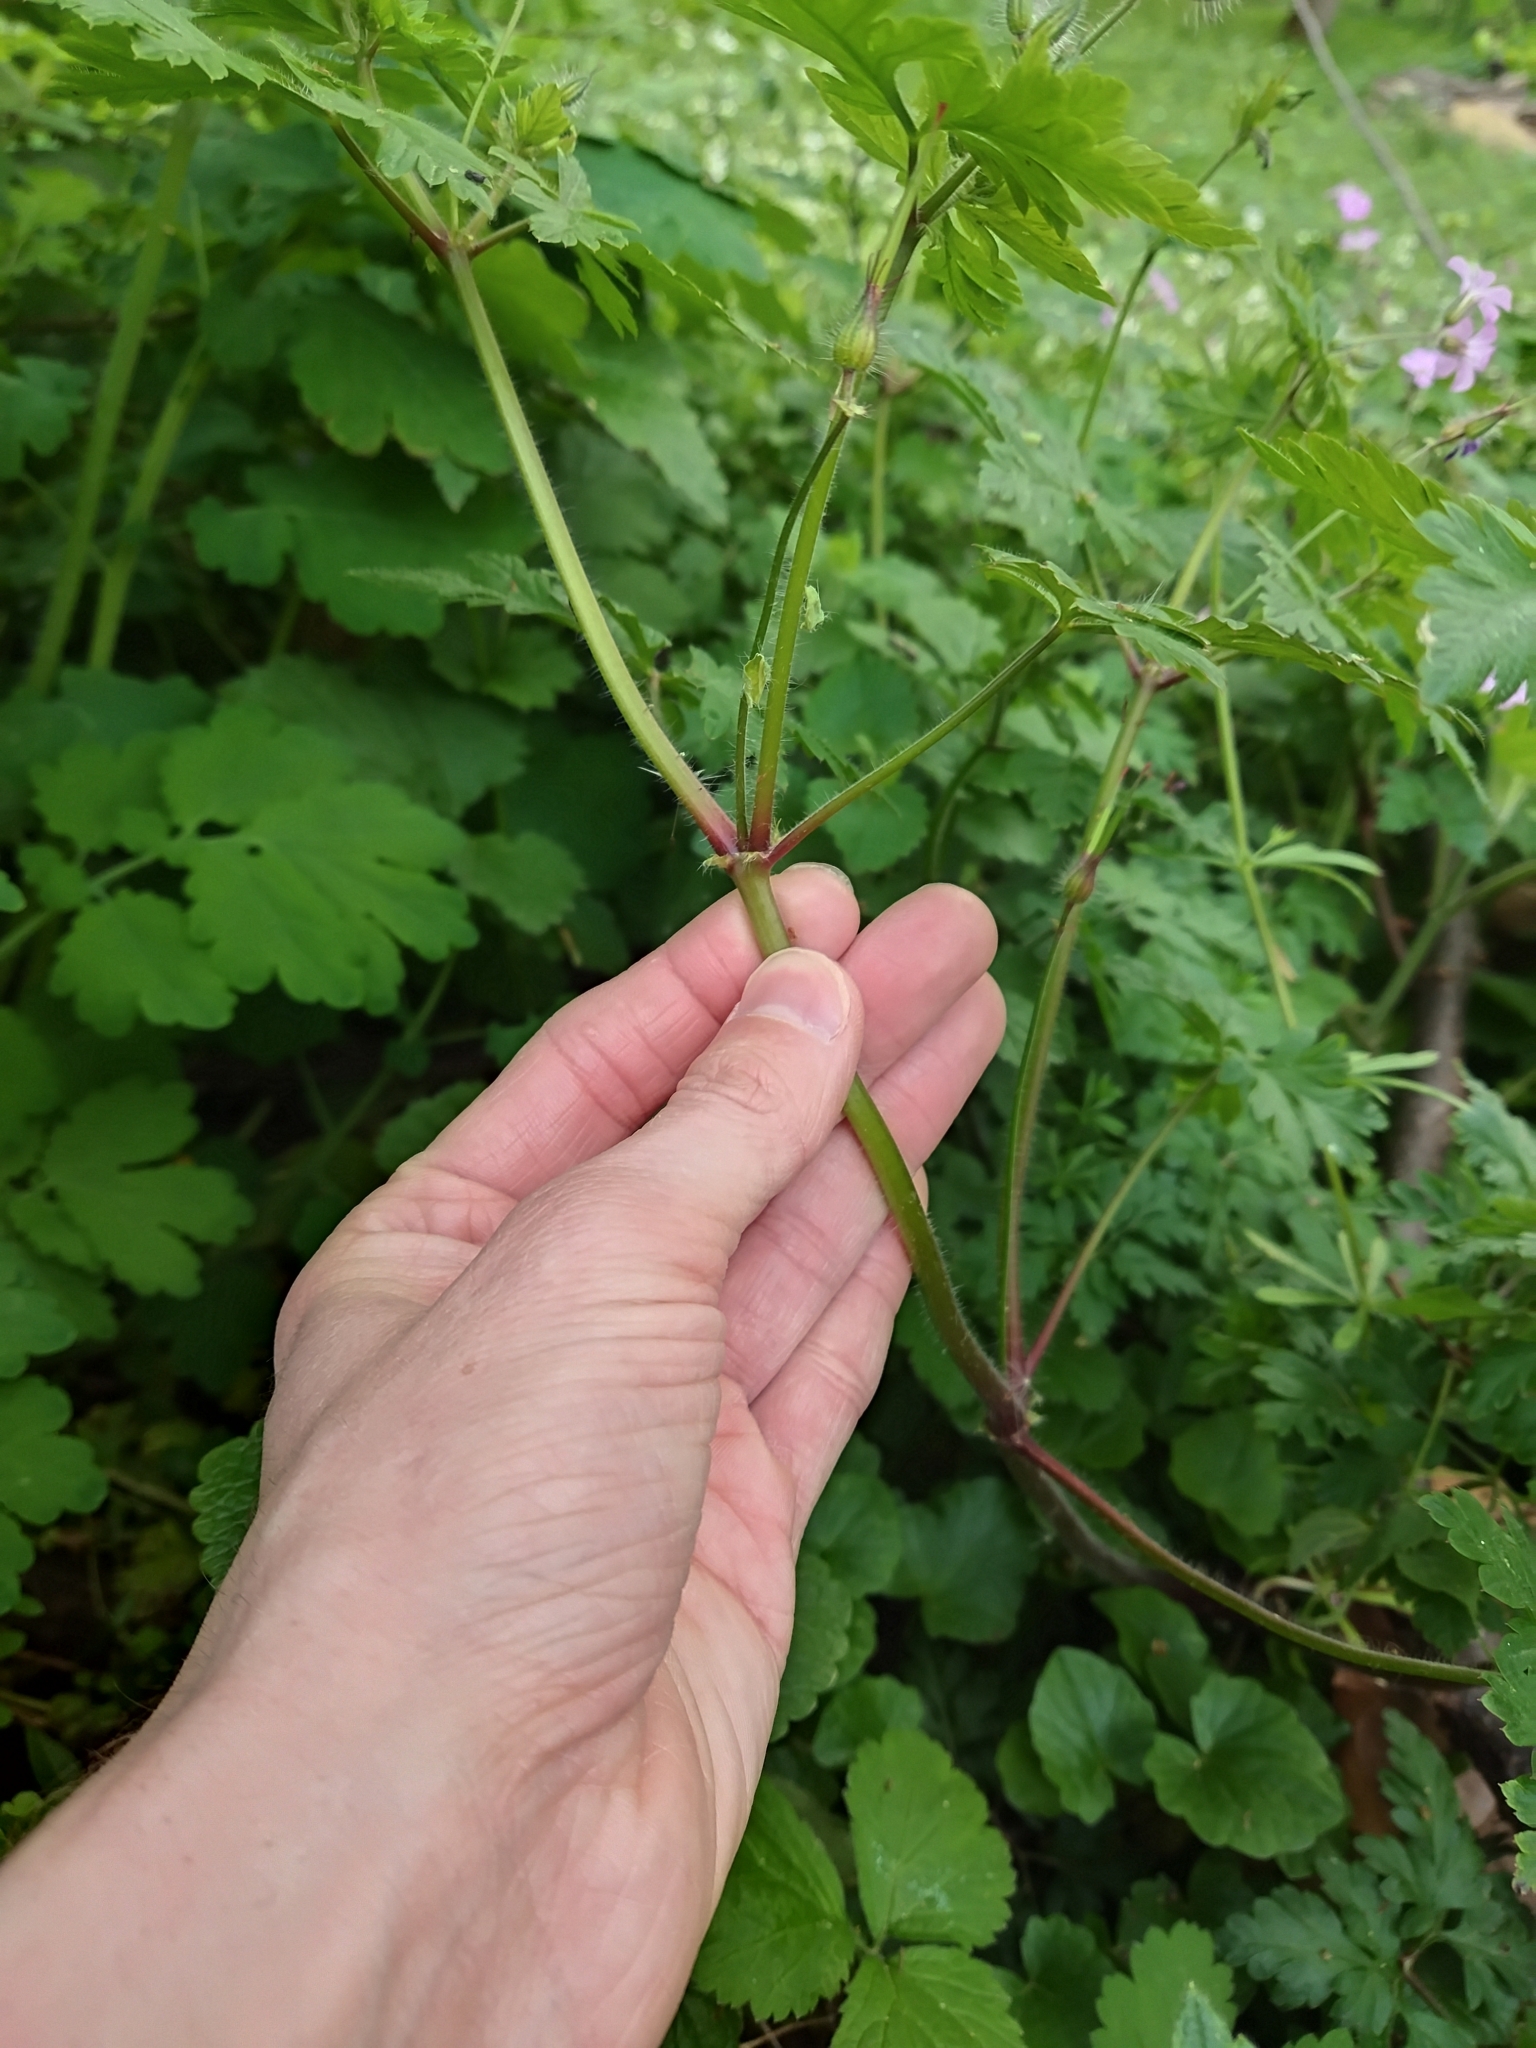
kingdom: Plantae
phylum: Tracheophyta
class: Magnoliopsida
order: Geraniales
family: Geraniaceae
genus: Geranium
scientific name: Geranium robertianum
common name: Herb-robert
